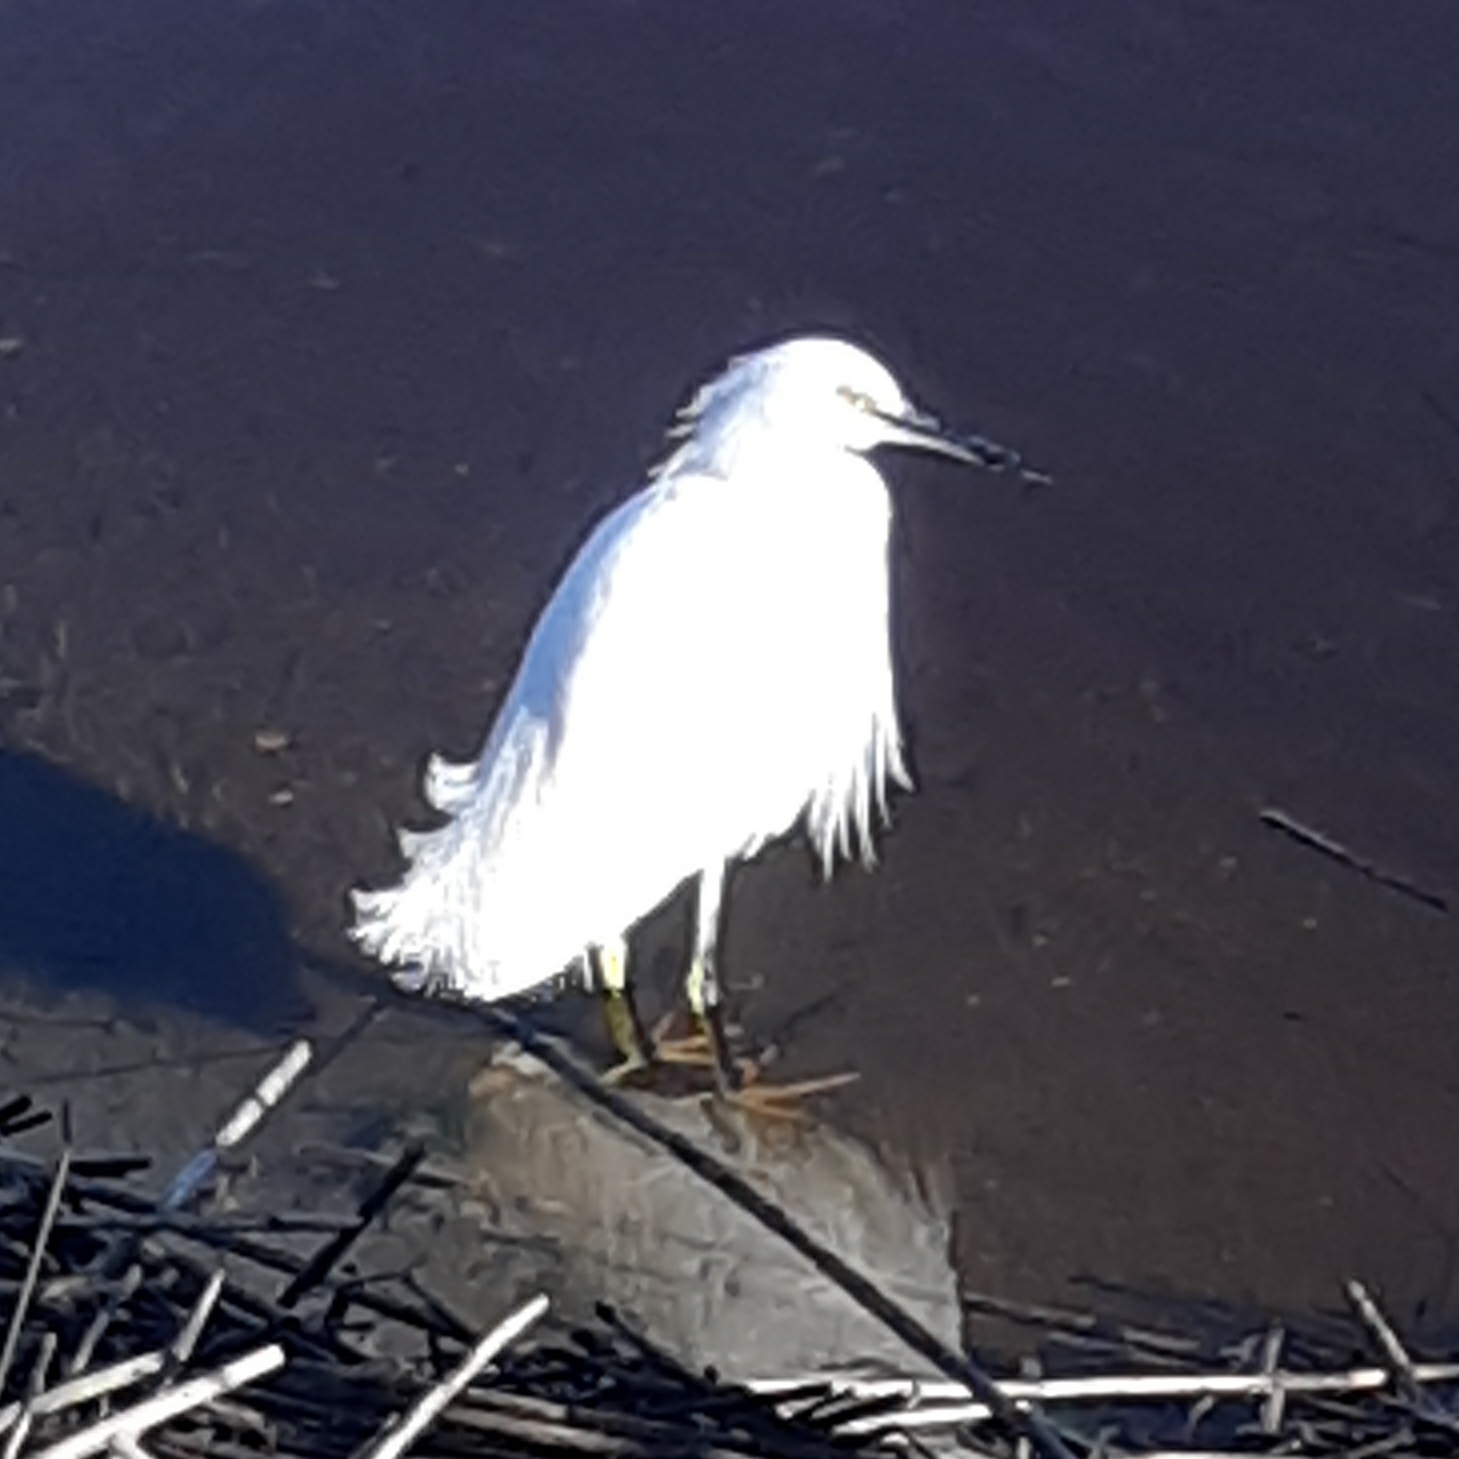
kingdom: Animalia
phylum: Chordata
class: Aves
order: Pelecaniformes
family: Ardeidae
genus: Egretta
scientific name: Egretta thula
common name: Snowy egret
